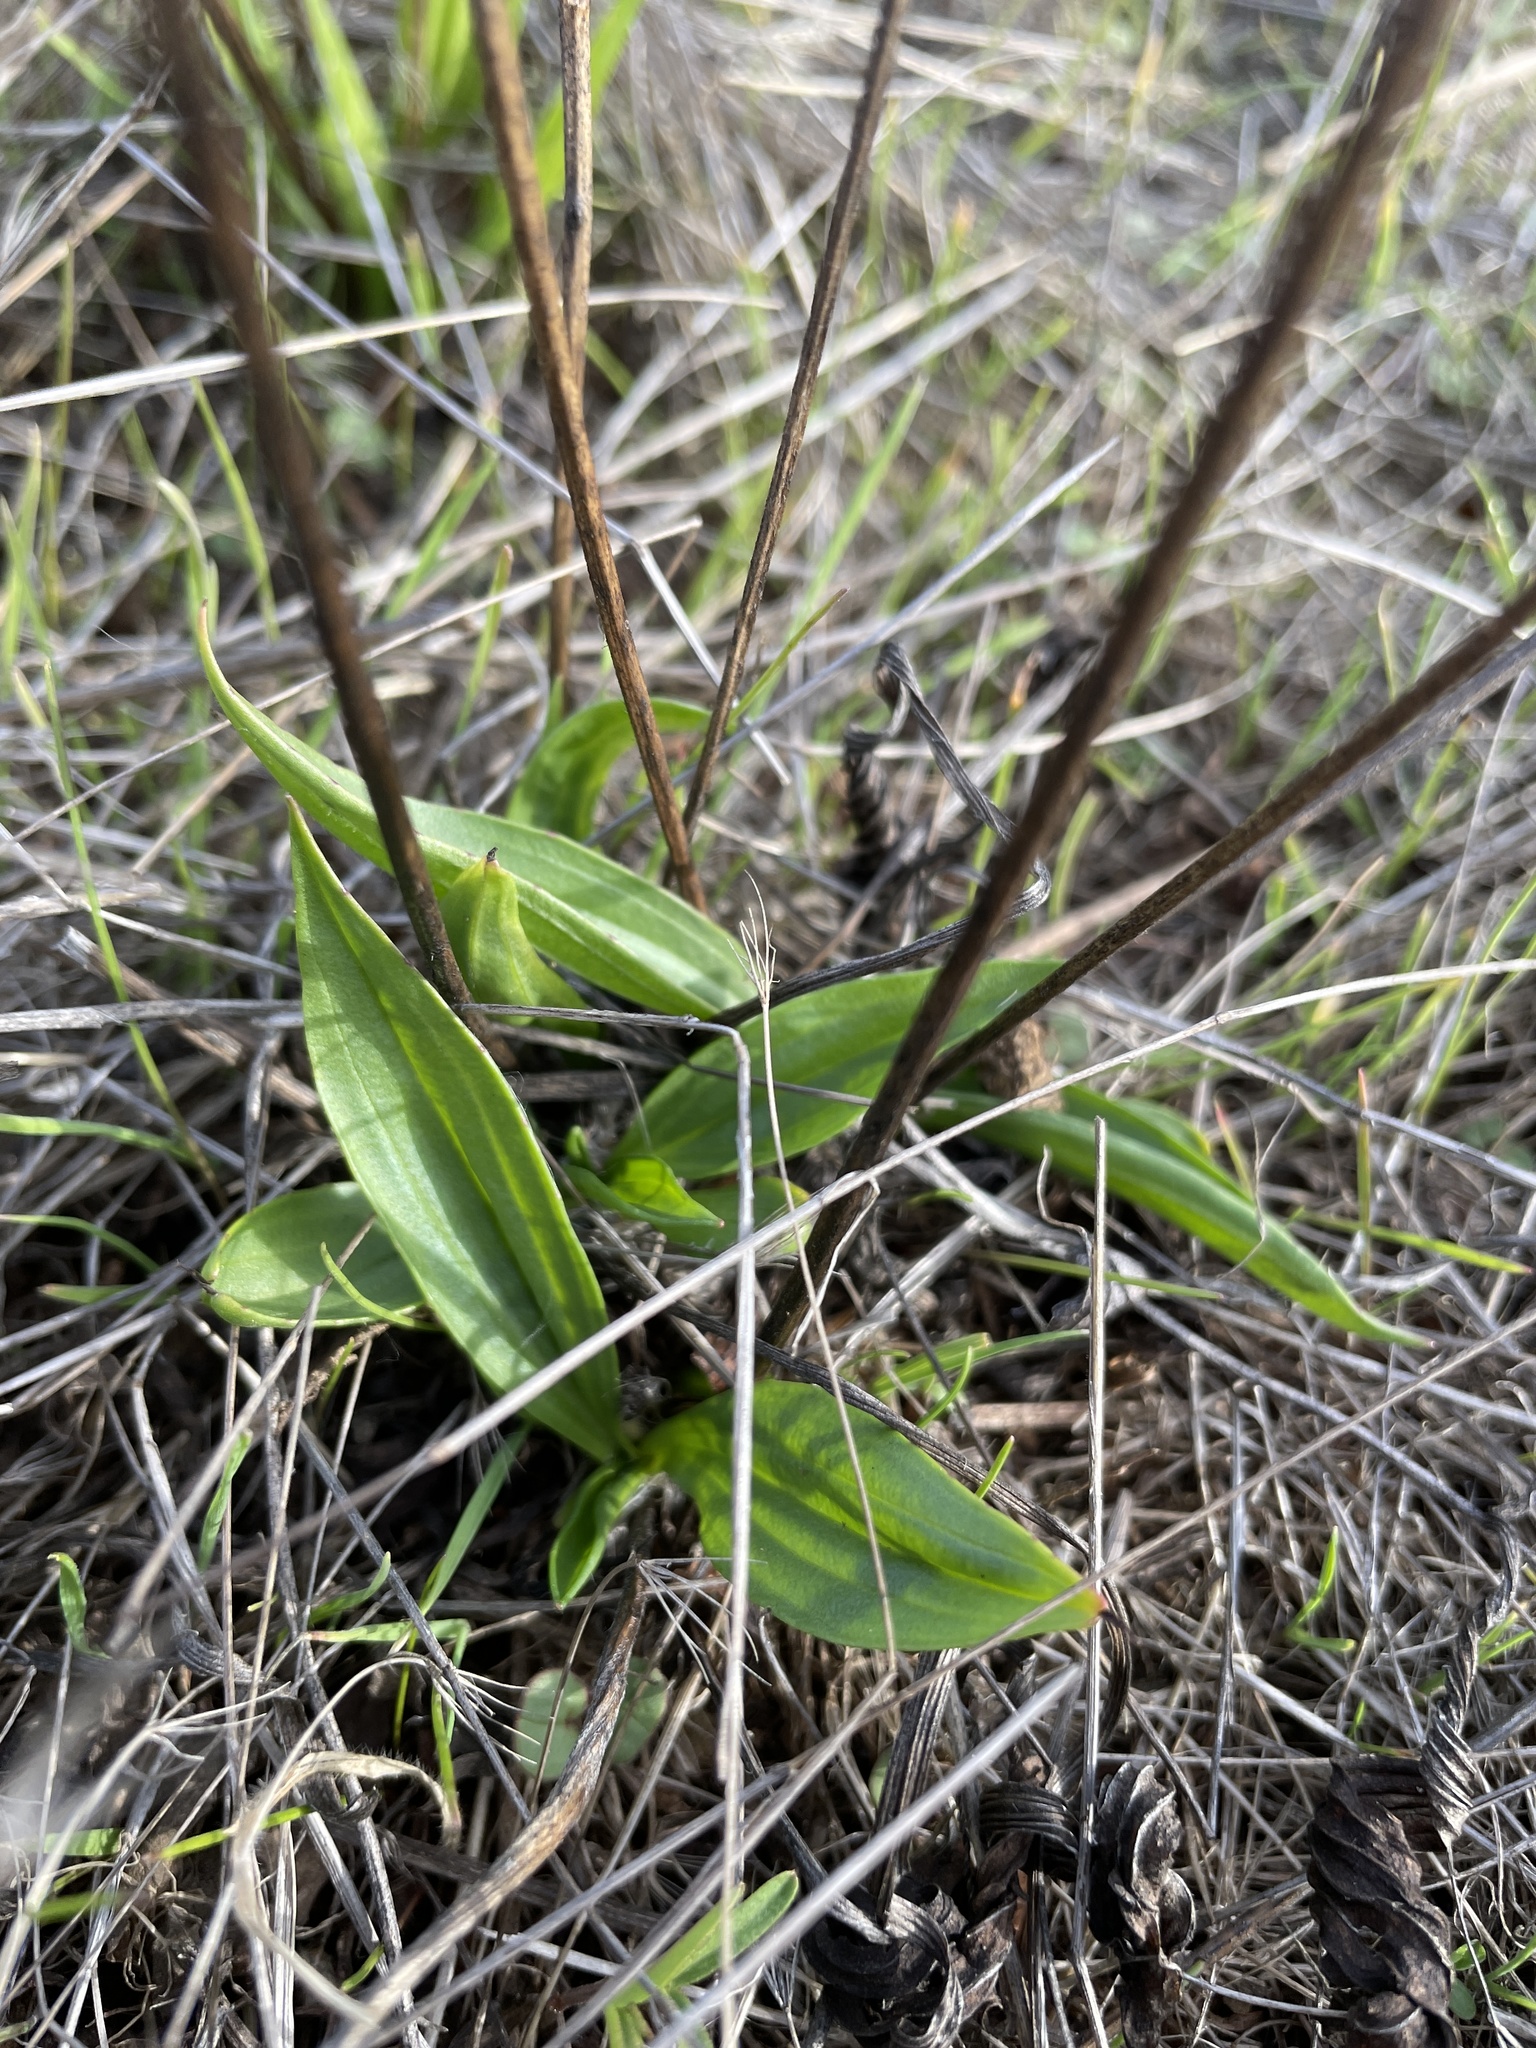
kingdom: Plantae
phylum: Tracheophyta
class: Magnoliopsida
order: Lamiales
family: Plantaginaceae
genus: Plantago
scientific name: Plantago lanceolata
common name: Ribwort plantain
